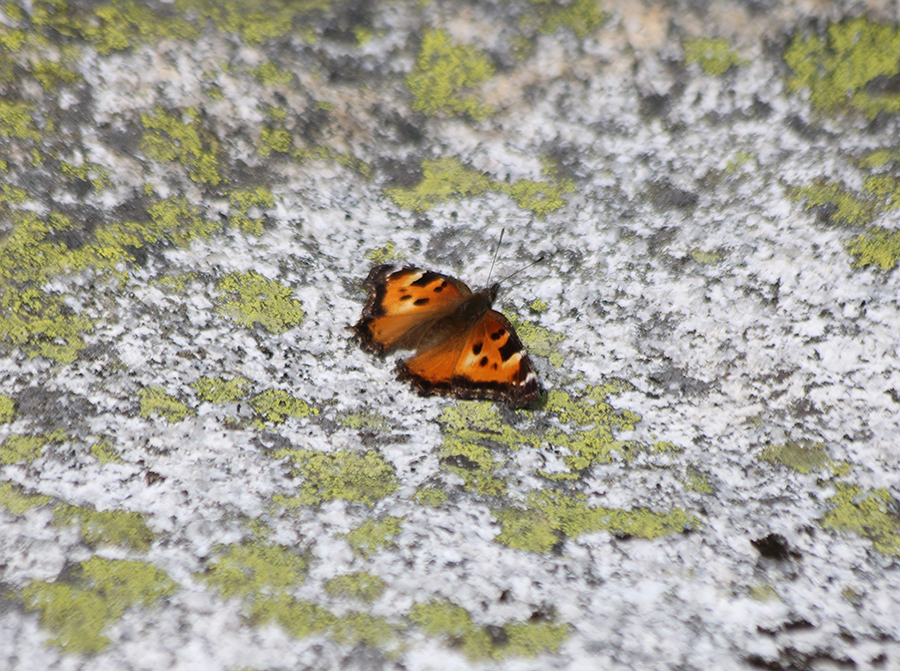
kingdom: Animalia
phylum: Arthropoda
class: Insecta
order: Lepidoptera
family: Nymphalidae
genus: Nymphalis
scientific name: Nymphalis californica
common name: California tortoiseshell
